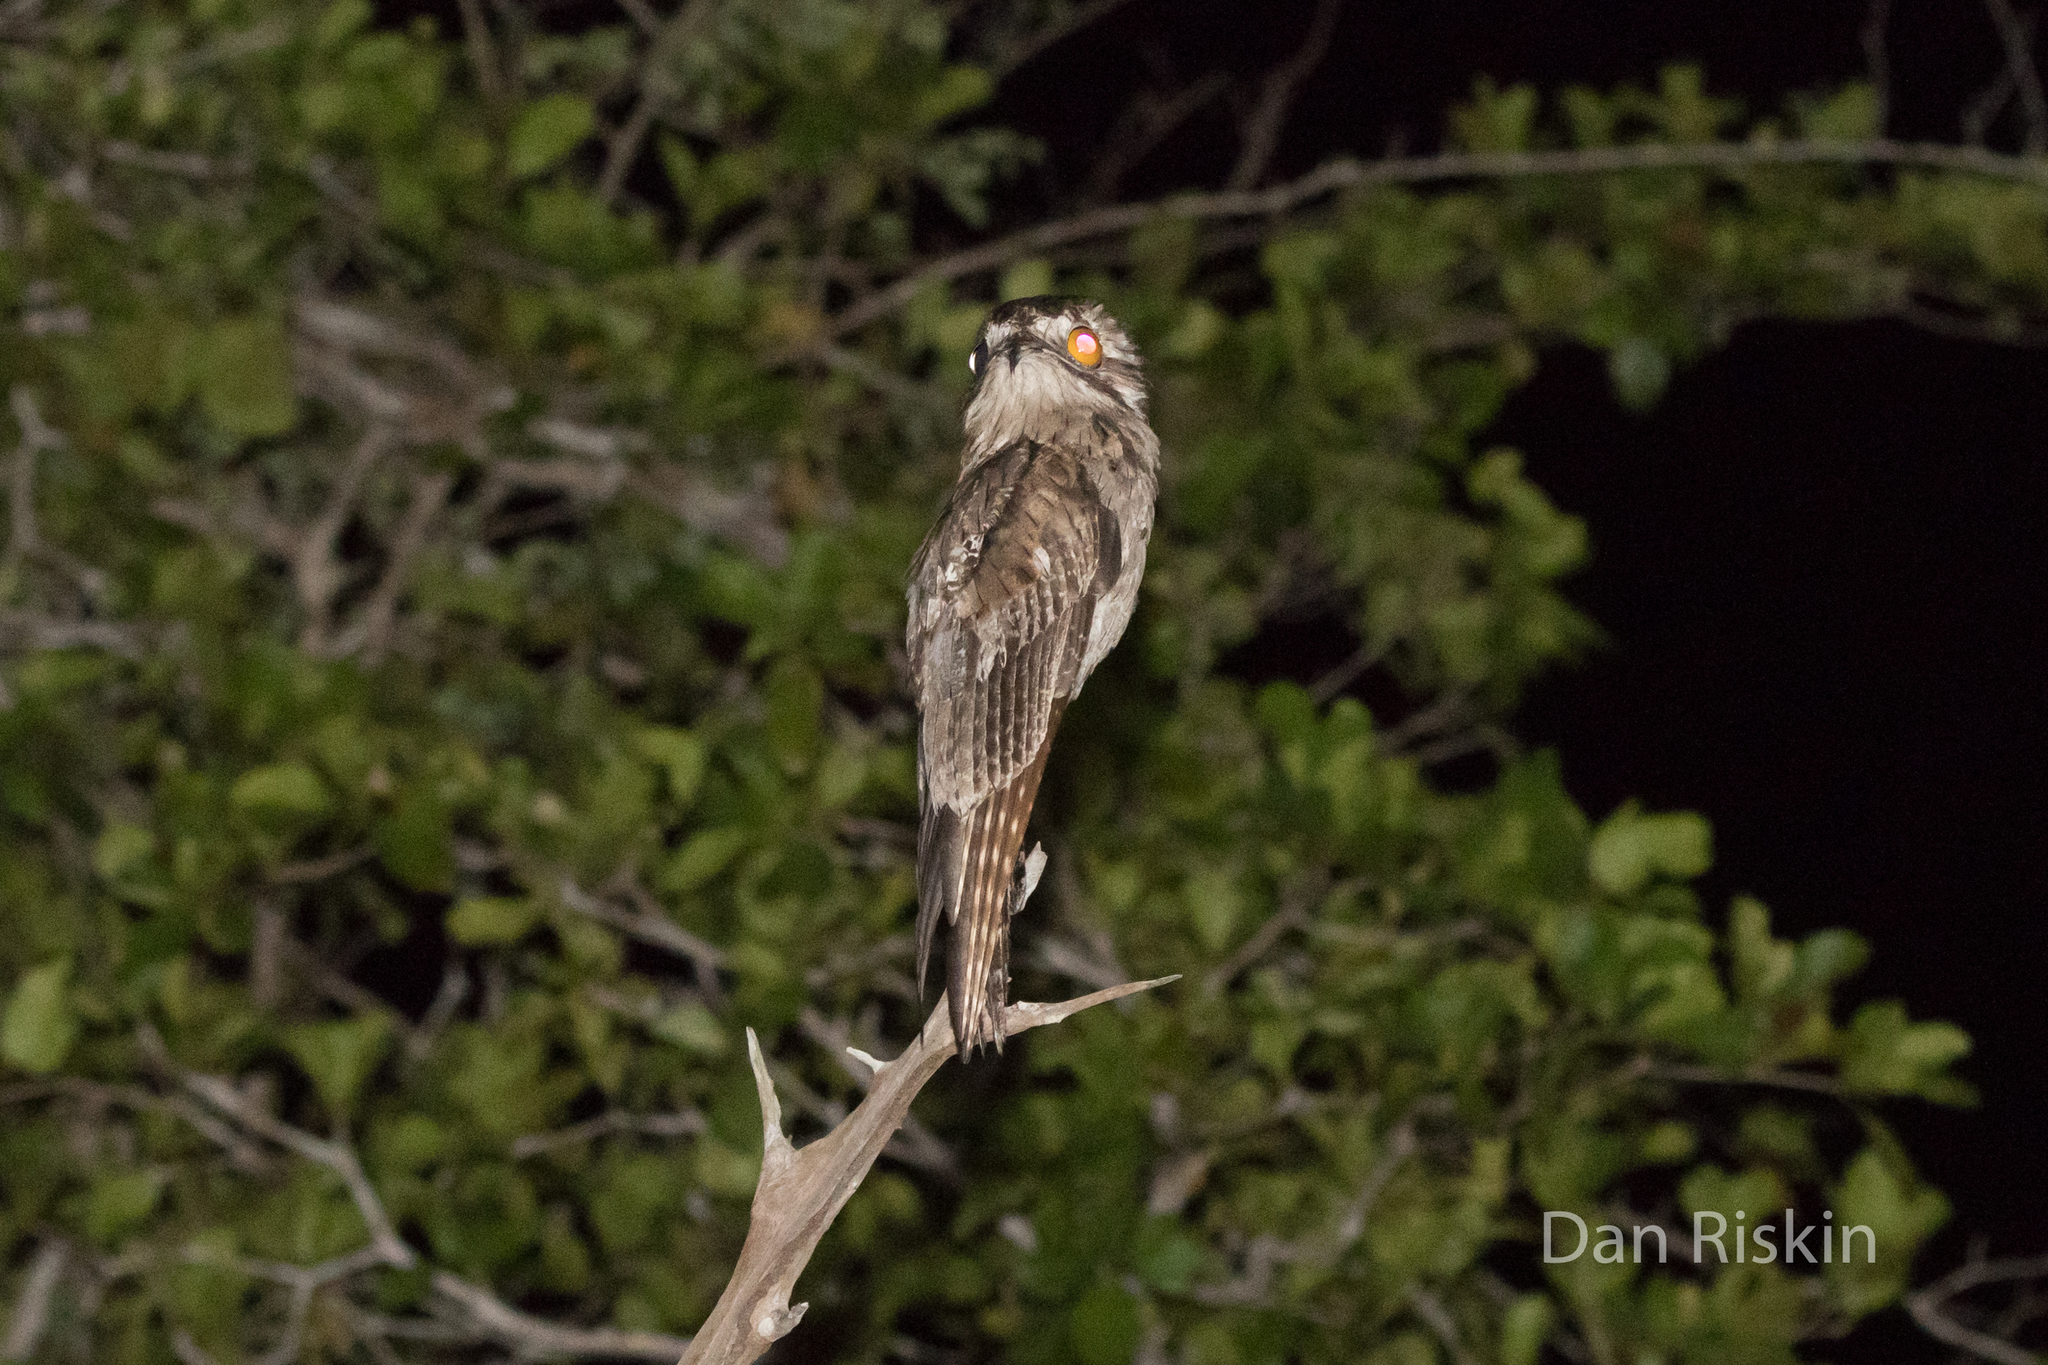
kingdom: Animalia
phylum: Chordata
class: Aves
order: Nyctibiiformes
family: Nyctibiidae
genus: Nyctibius
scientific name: Nyctibius jamaicensis
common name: Northern potoo
